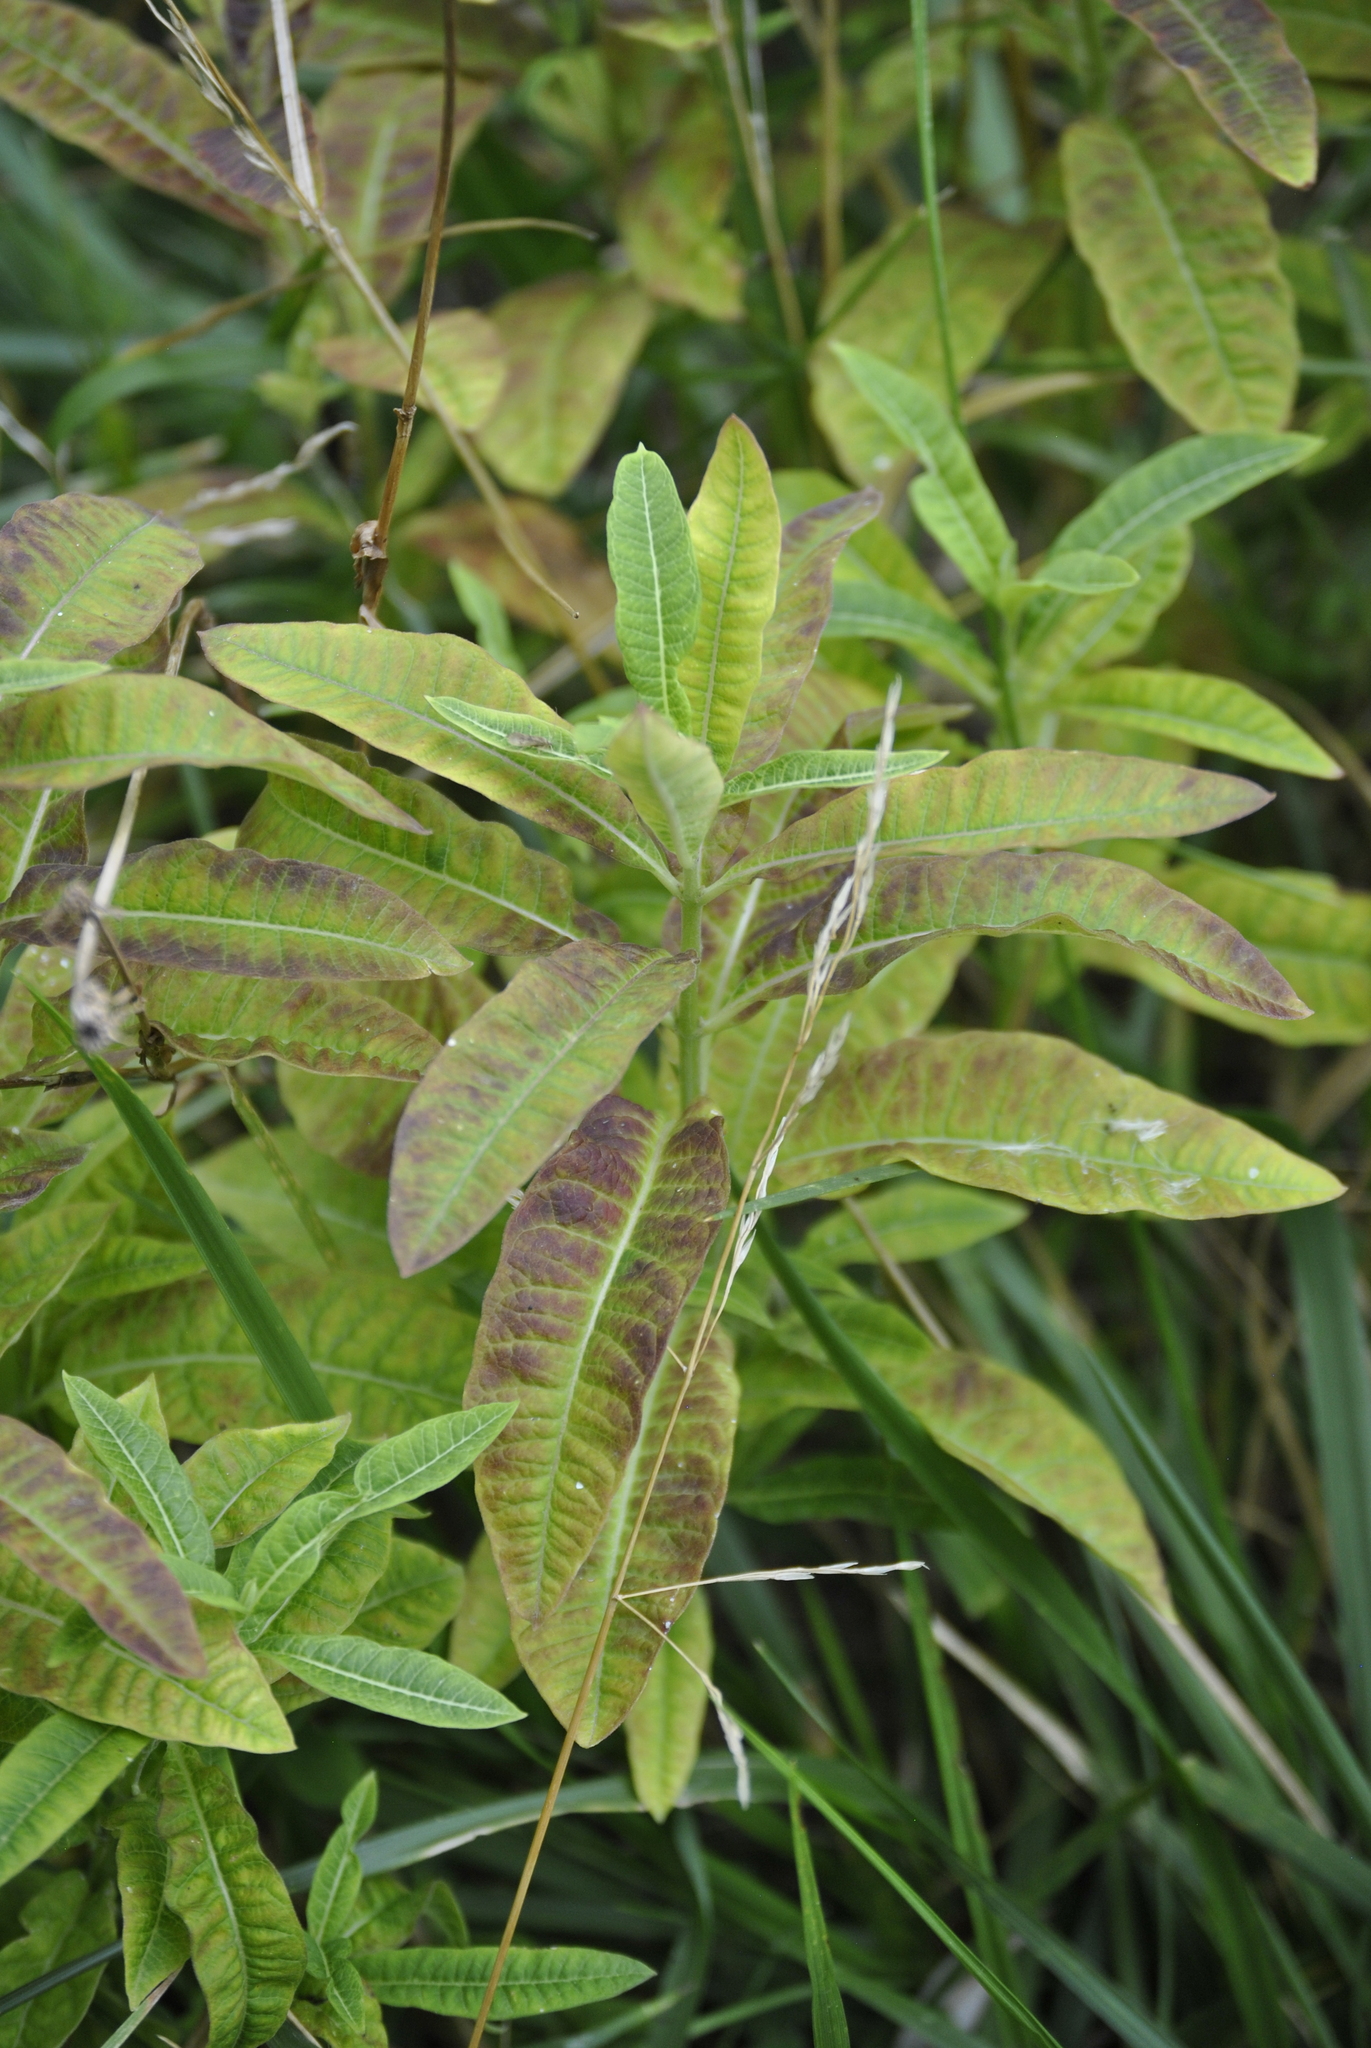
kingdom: Plantae
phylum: Tracheophyta
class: Magnoliopsida
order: Gentianales
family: Apocynaceae
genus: Asclepias
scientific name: Asclepias syriaca
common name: Common milkweed
